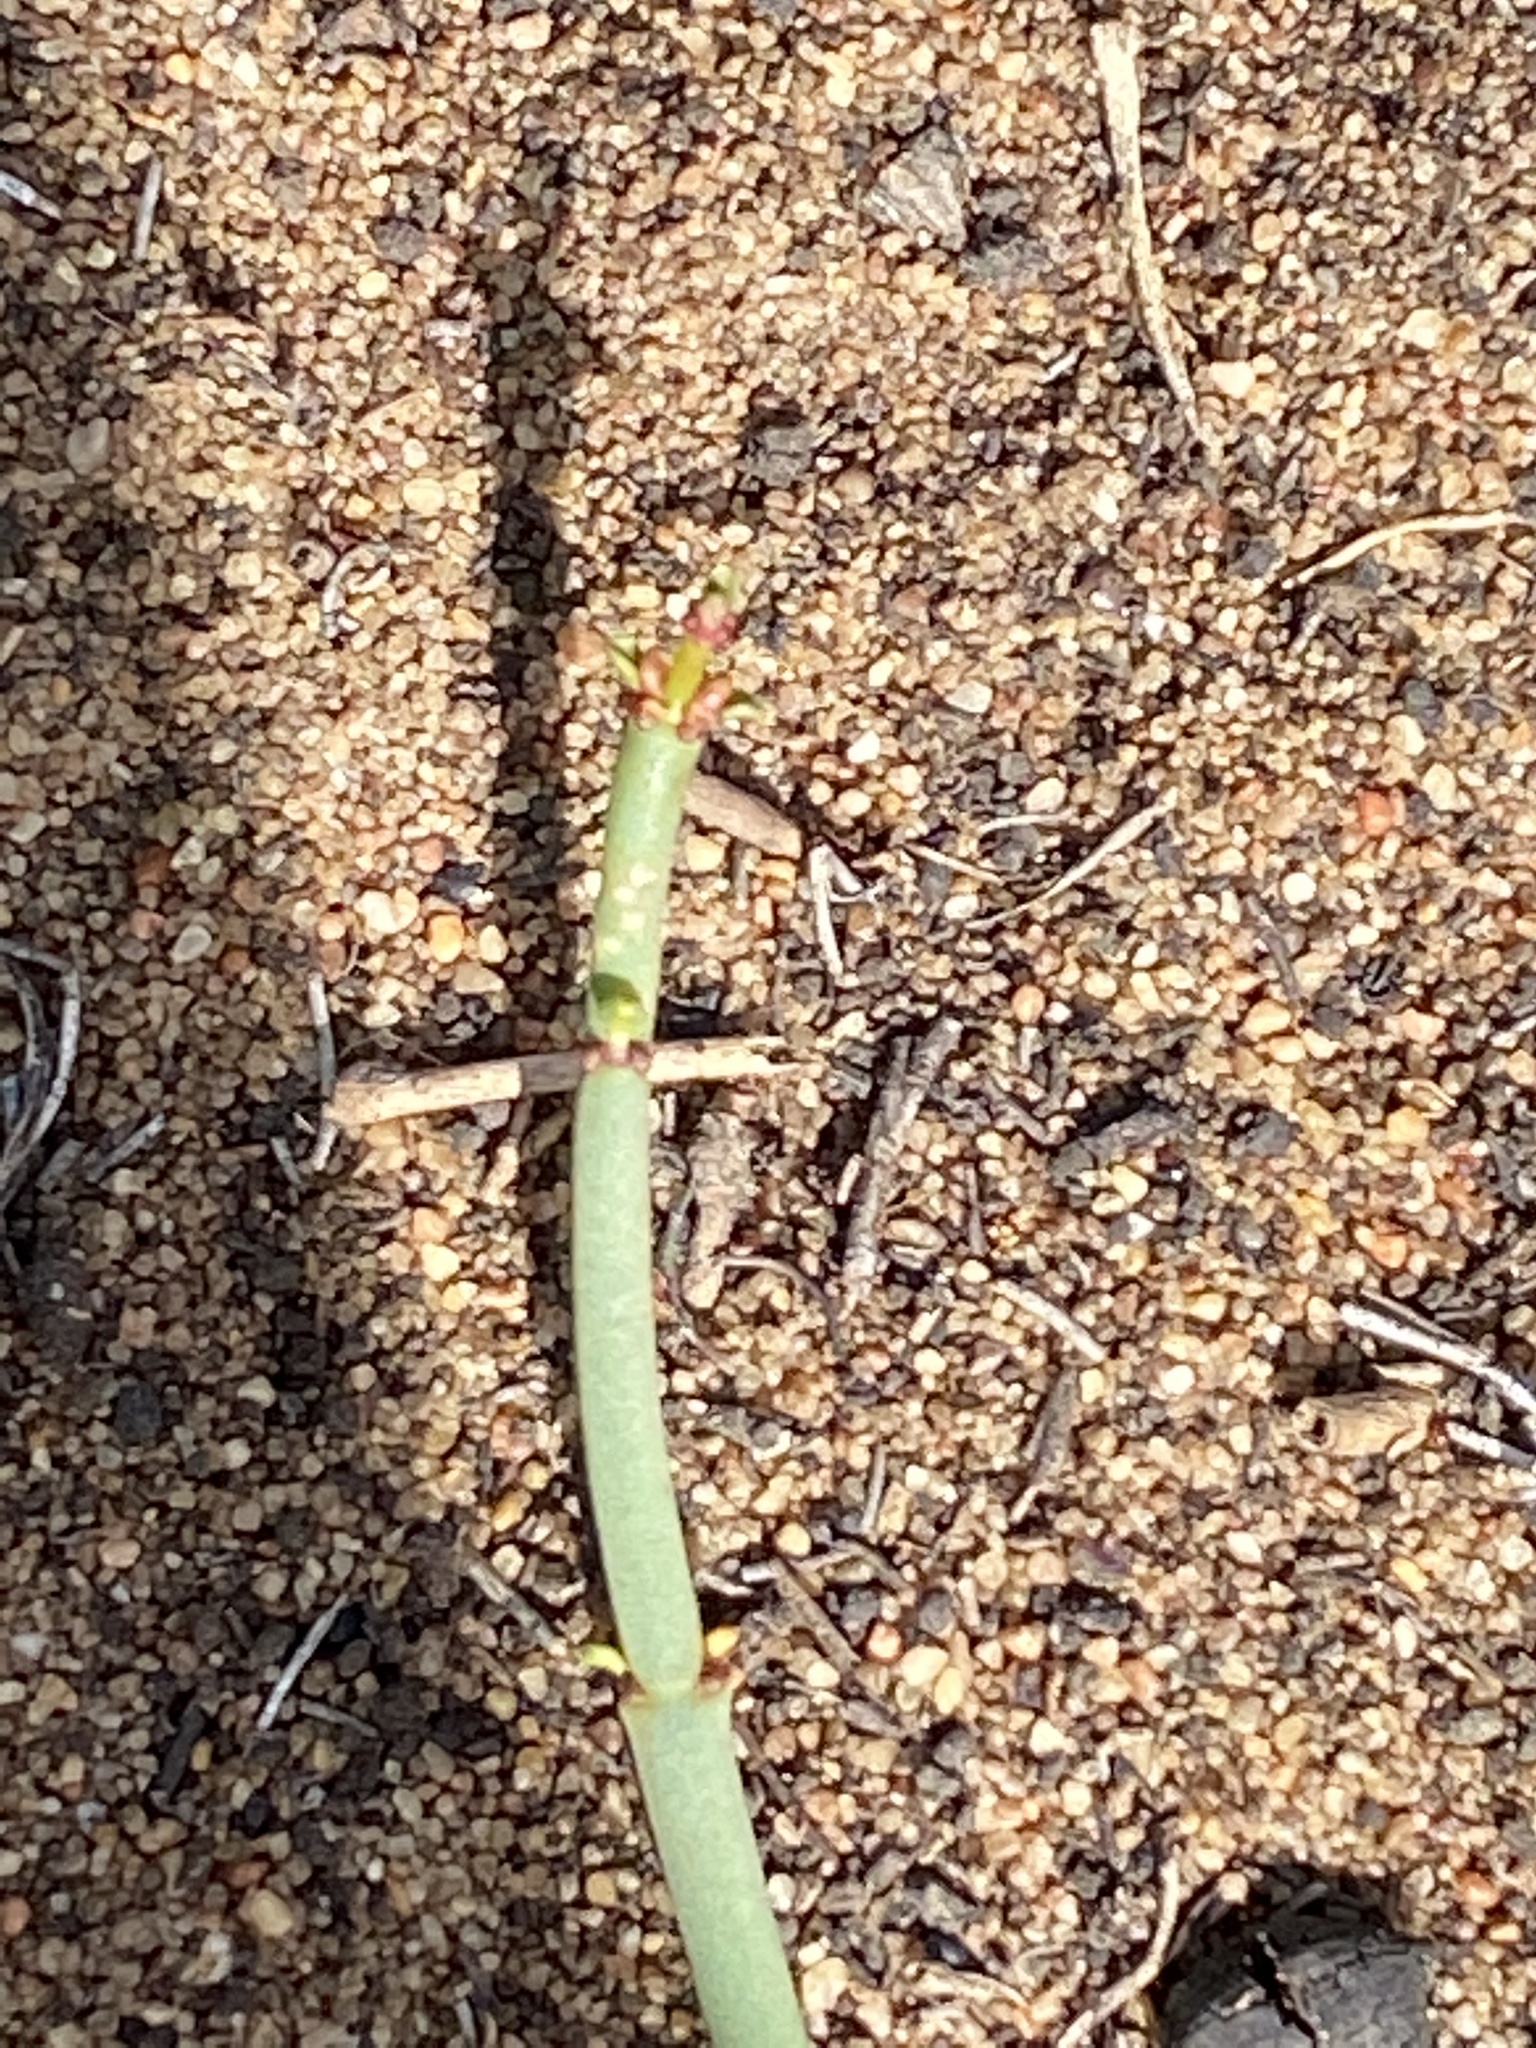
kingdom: Plantae
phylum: Tracheophyta
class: Magnoliopsida
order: Malpighiales
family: Euphorbiaceae
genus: Euphorbia
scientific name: Euphorbia burmanni
